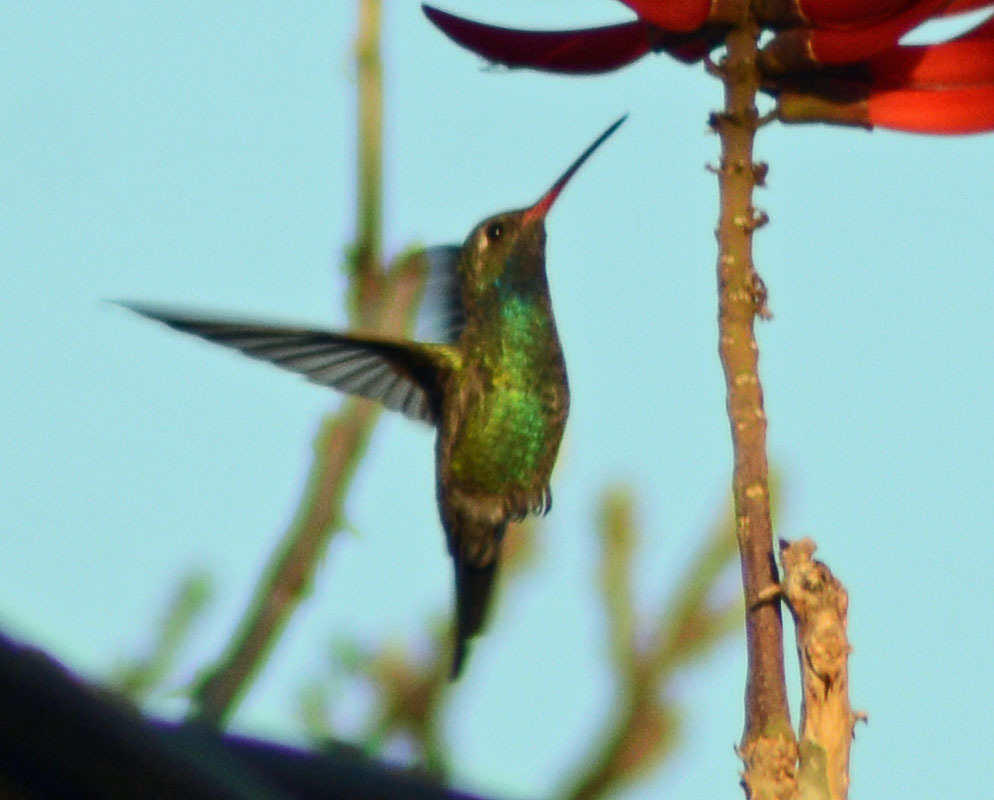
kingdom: Animalia
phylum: Chordata
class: Aves
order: Apodiformes
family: Trochilidae
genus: Cynanthus
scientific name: Cynanthus latirostris
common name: Broad-billed hummingbird
